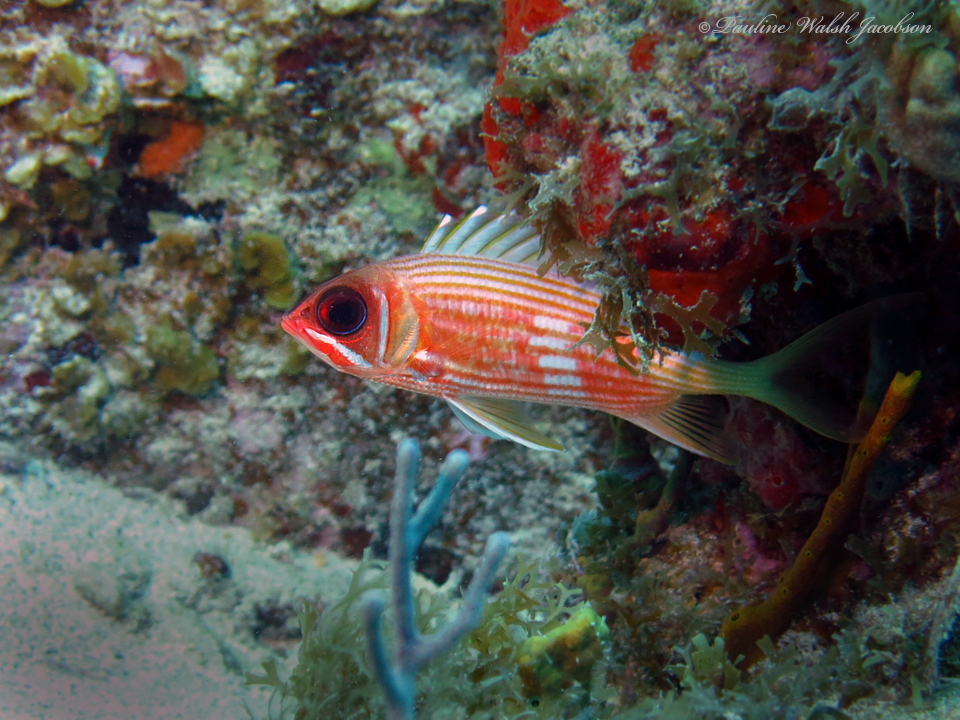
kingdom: Animalia
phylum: Chordata
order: Beryciformes
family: Holocentridae
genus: Holocentrus
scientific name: Holocentrus rufus
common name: Longspine squirrelfish
